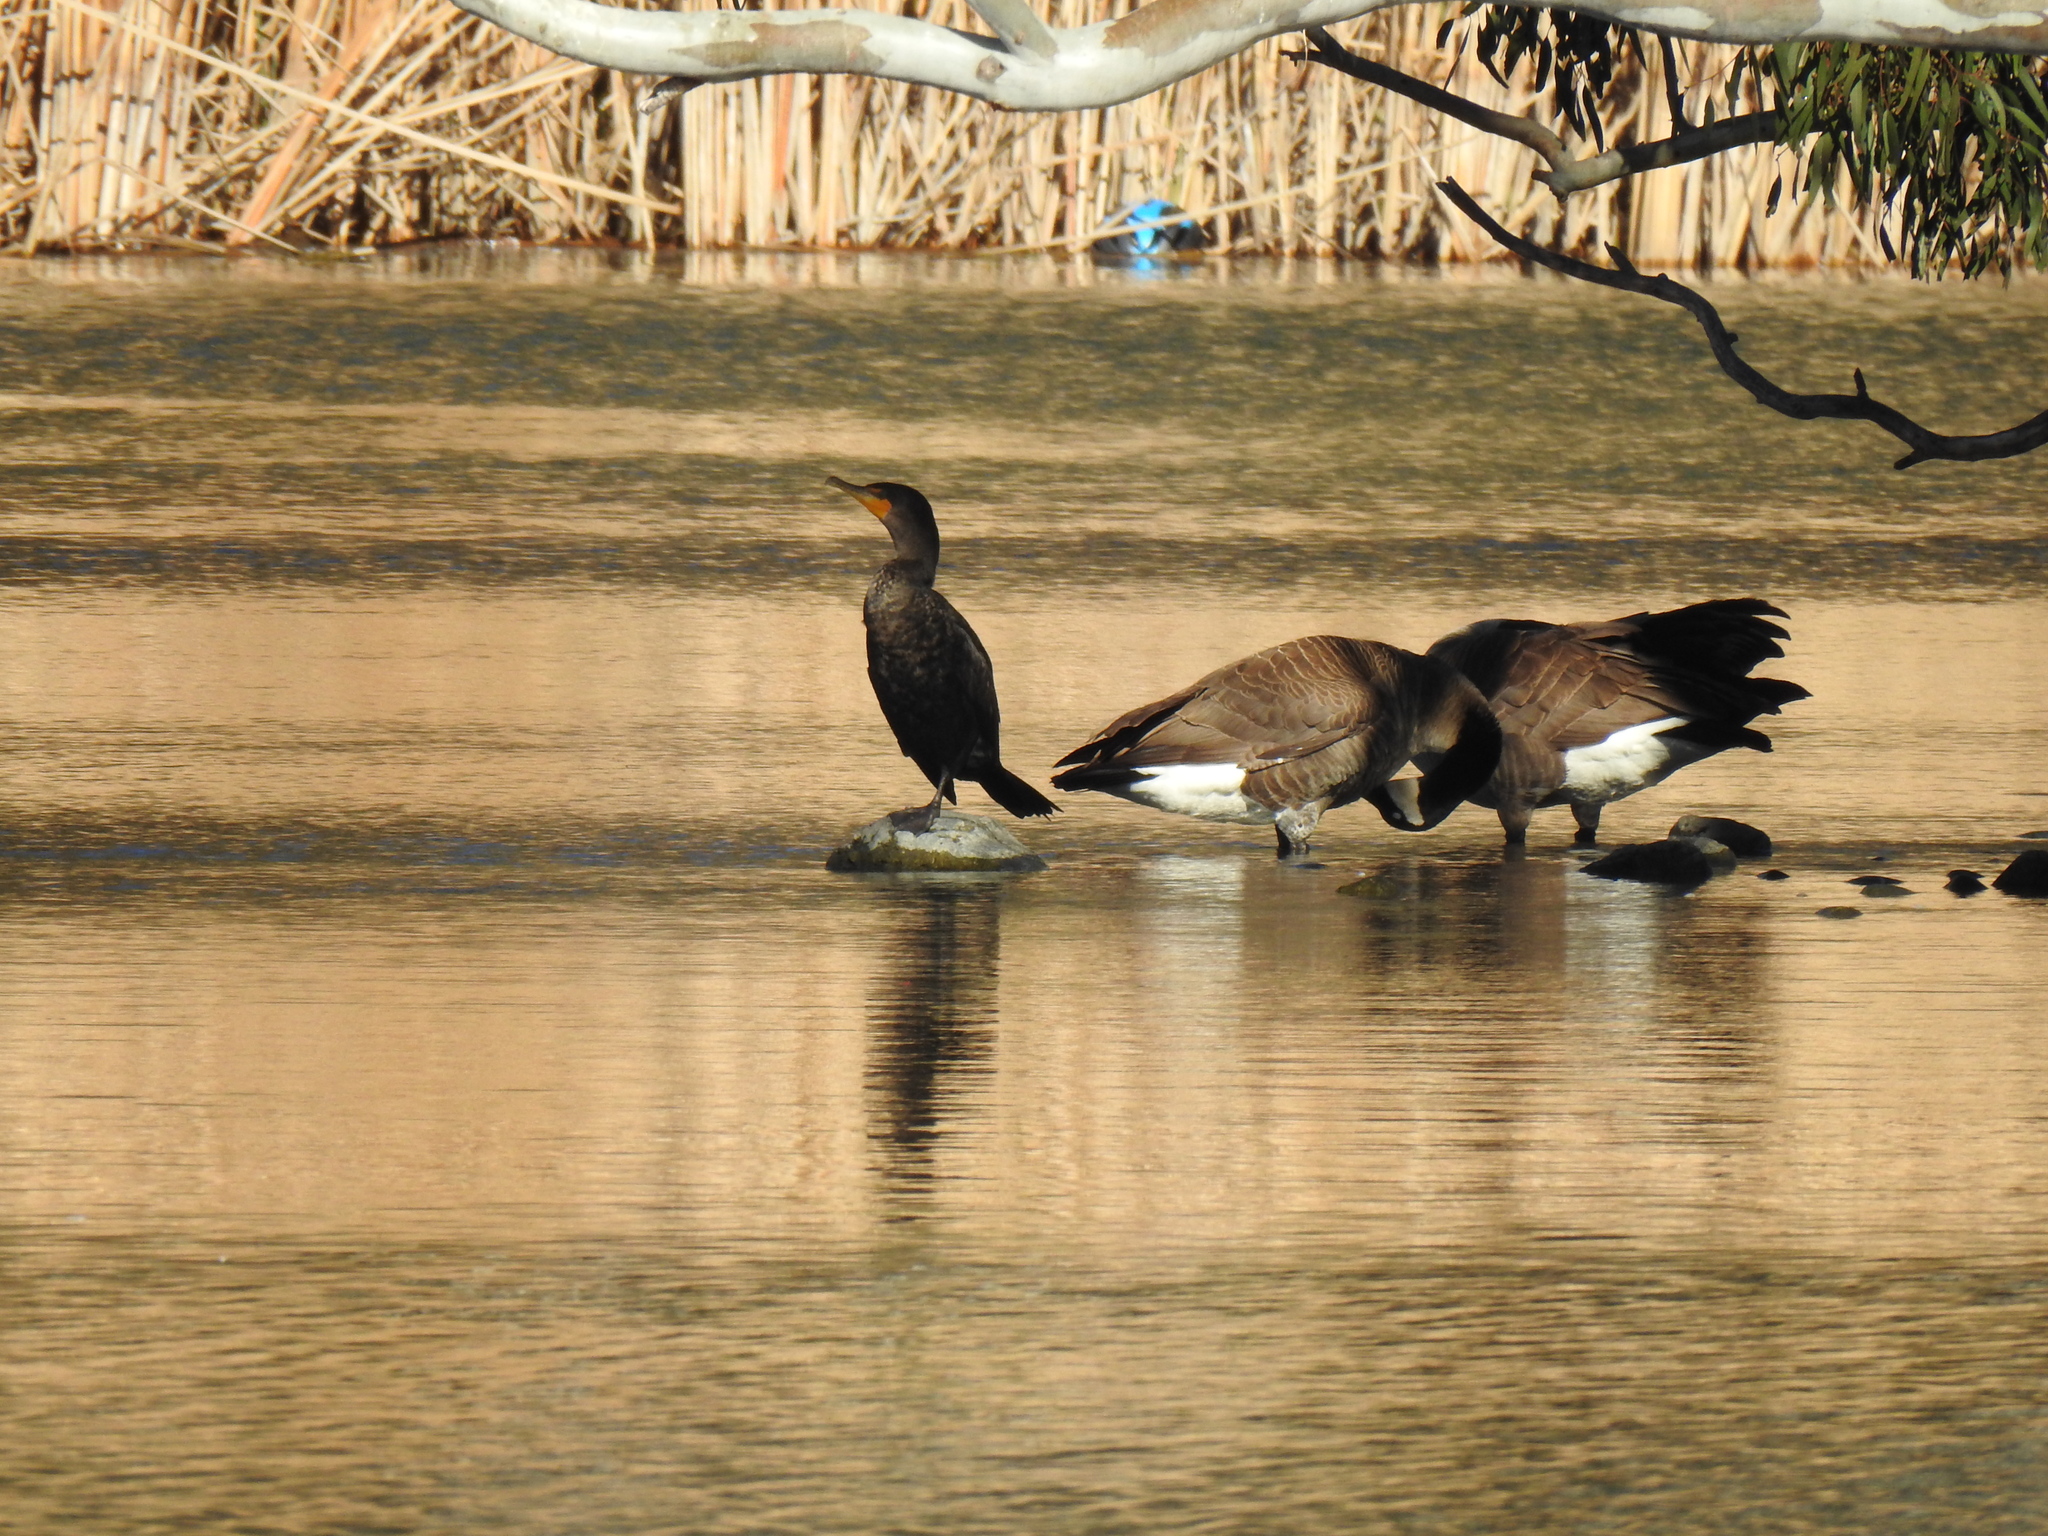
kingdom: Animalia
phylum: Chordata
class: Aves
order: Suliformes
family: Phalacrocoracidae
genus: Phalacrocorax
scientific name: Phalacrocorax auritus
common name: Double-crested cormorant
